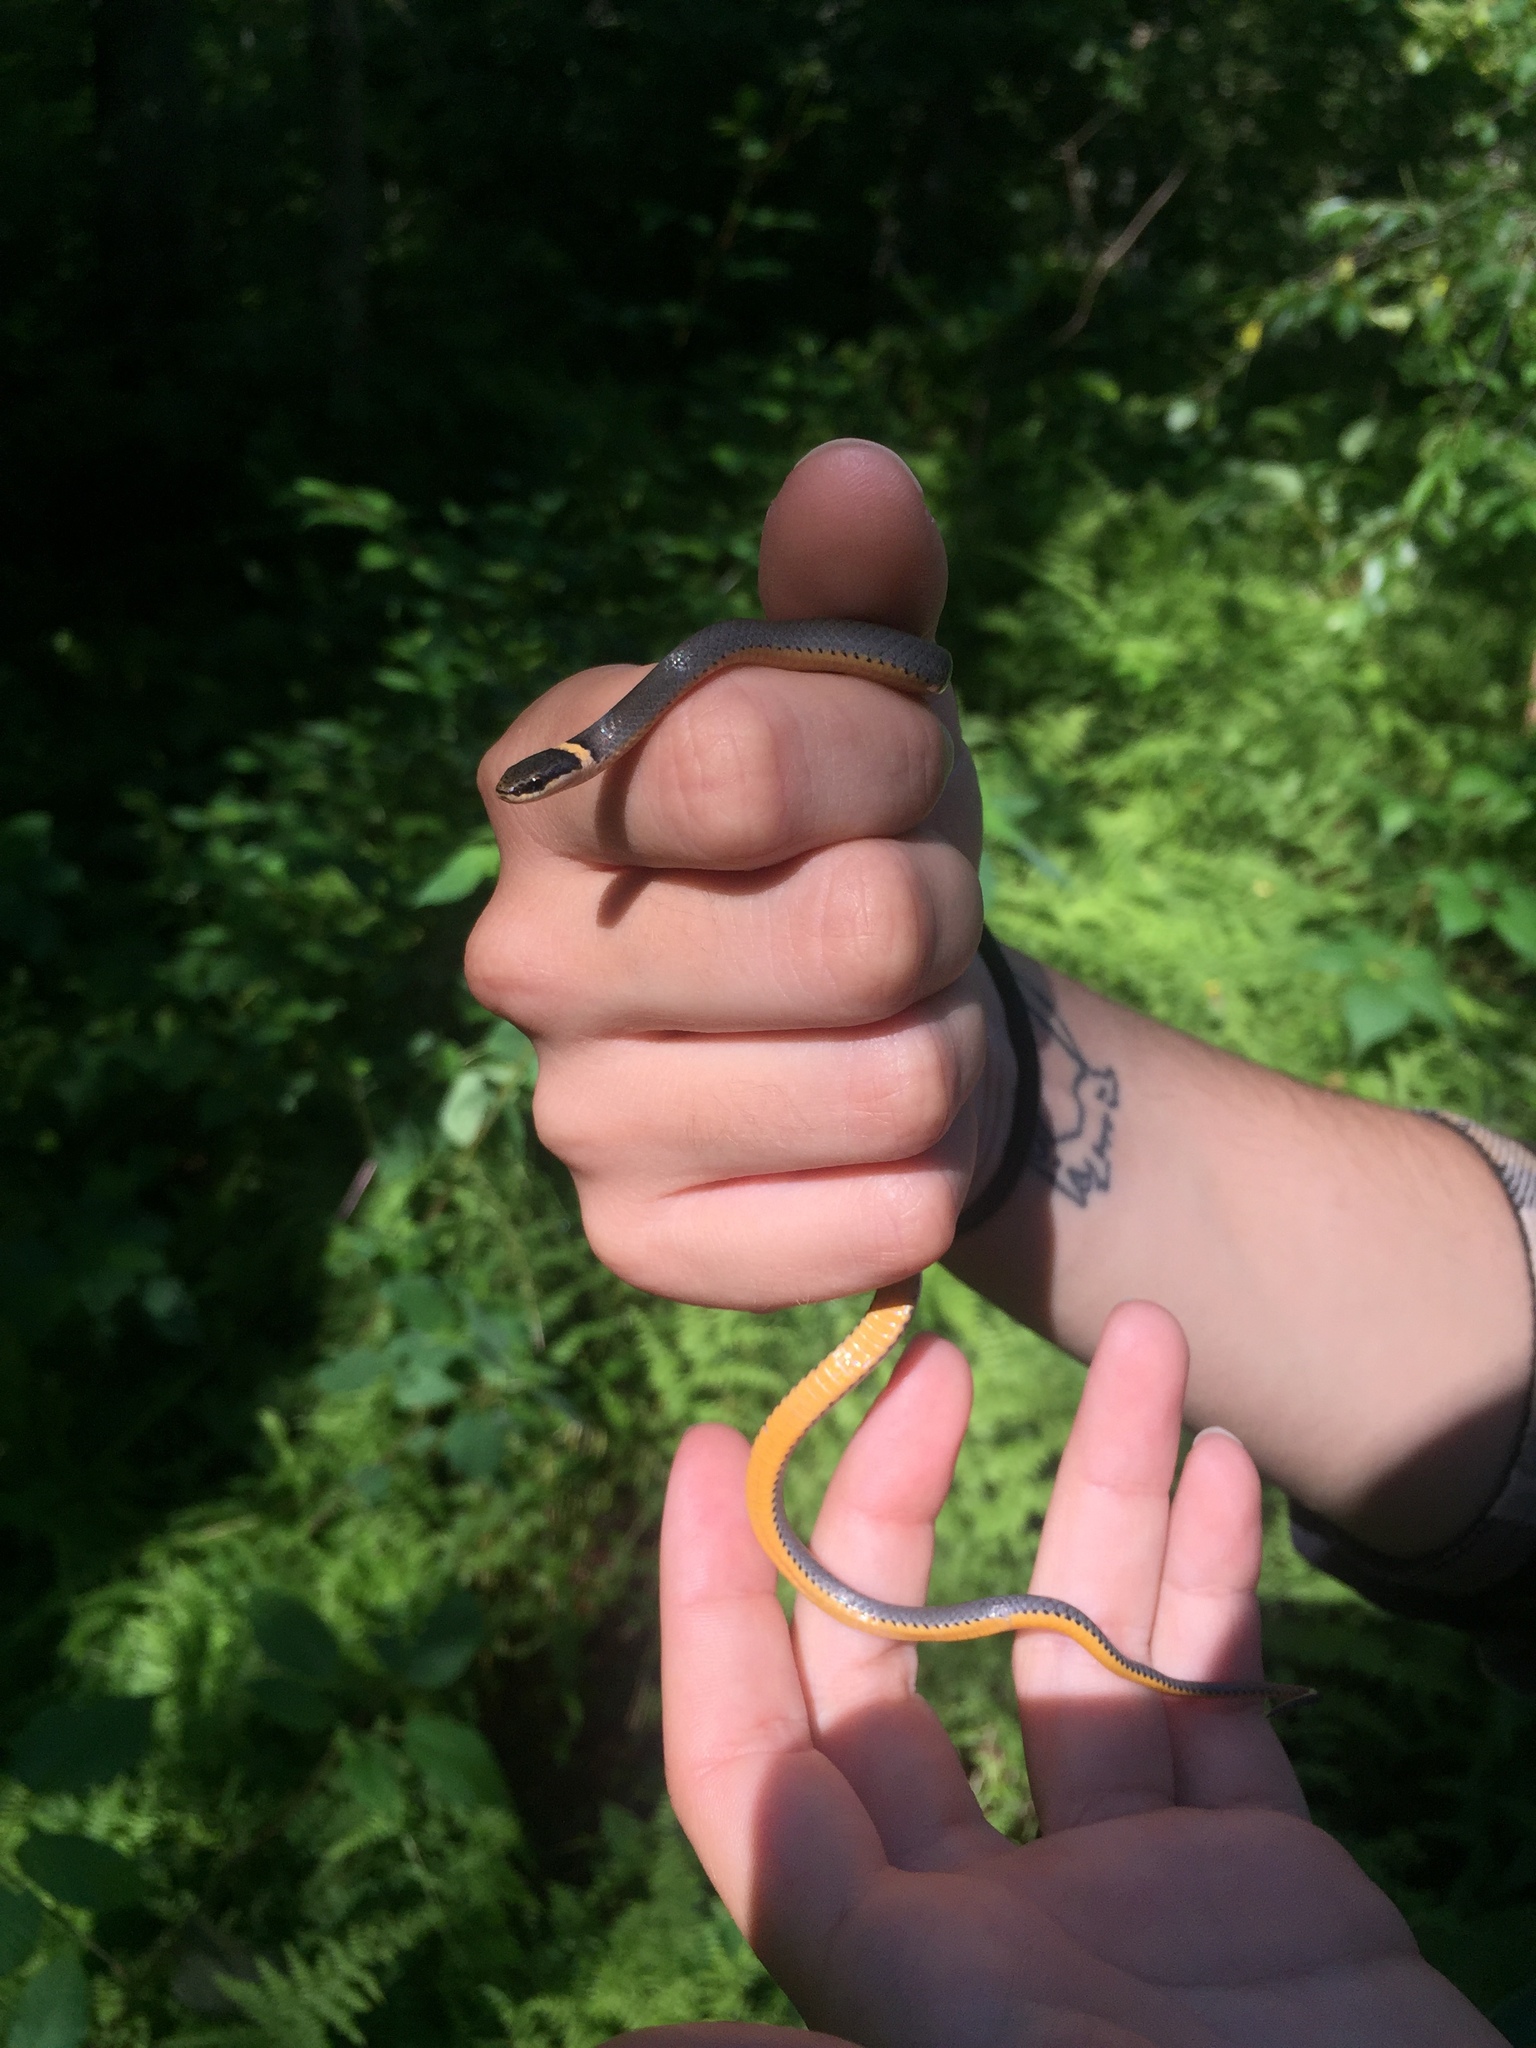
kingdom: Animalia
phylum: Chordata
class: Squamata
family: Colubridae
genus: Diadophis
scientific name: Diadophis punctatus
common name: Ringneck snake
